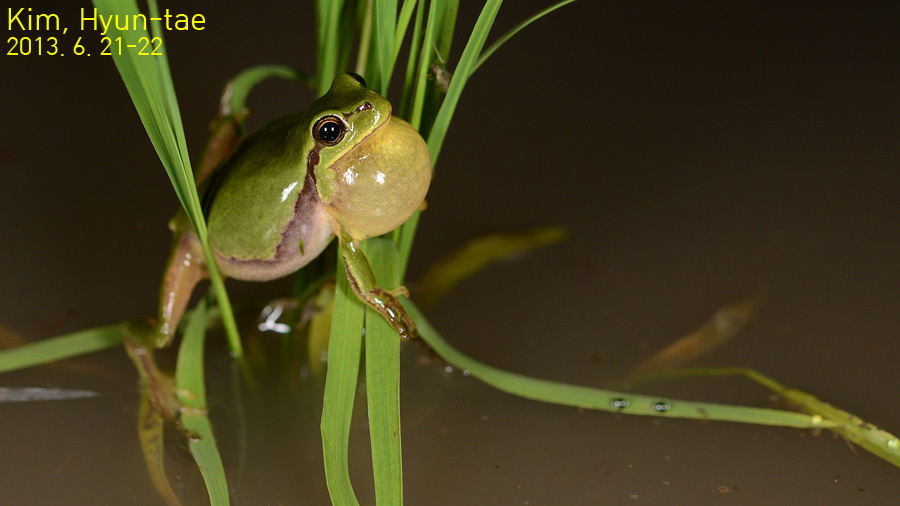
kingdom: Animalia
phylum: Chordata
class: Amphibia
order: Anura
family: Hylidae
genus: Hyla
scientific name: Hyla
